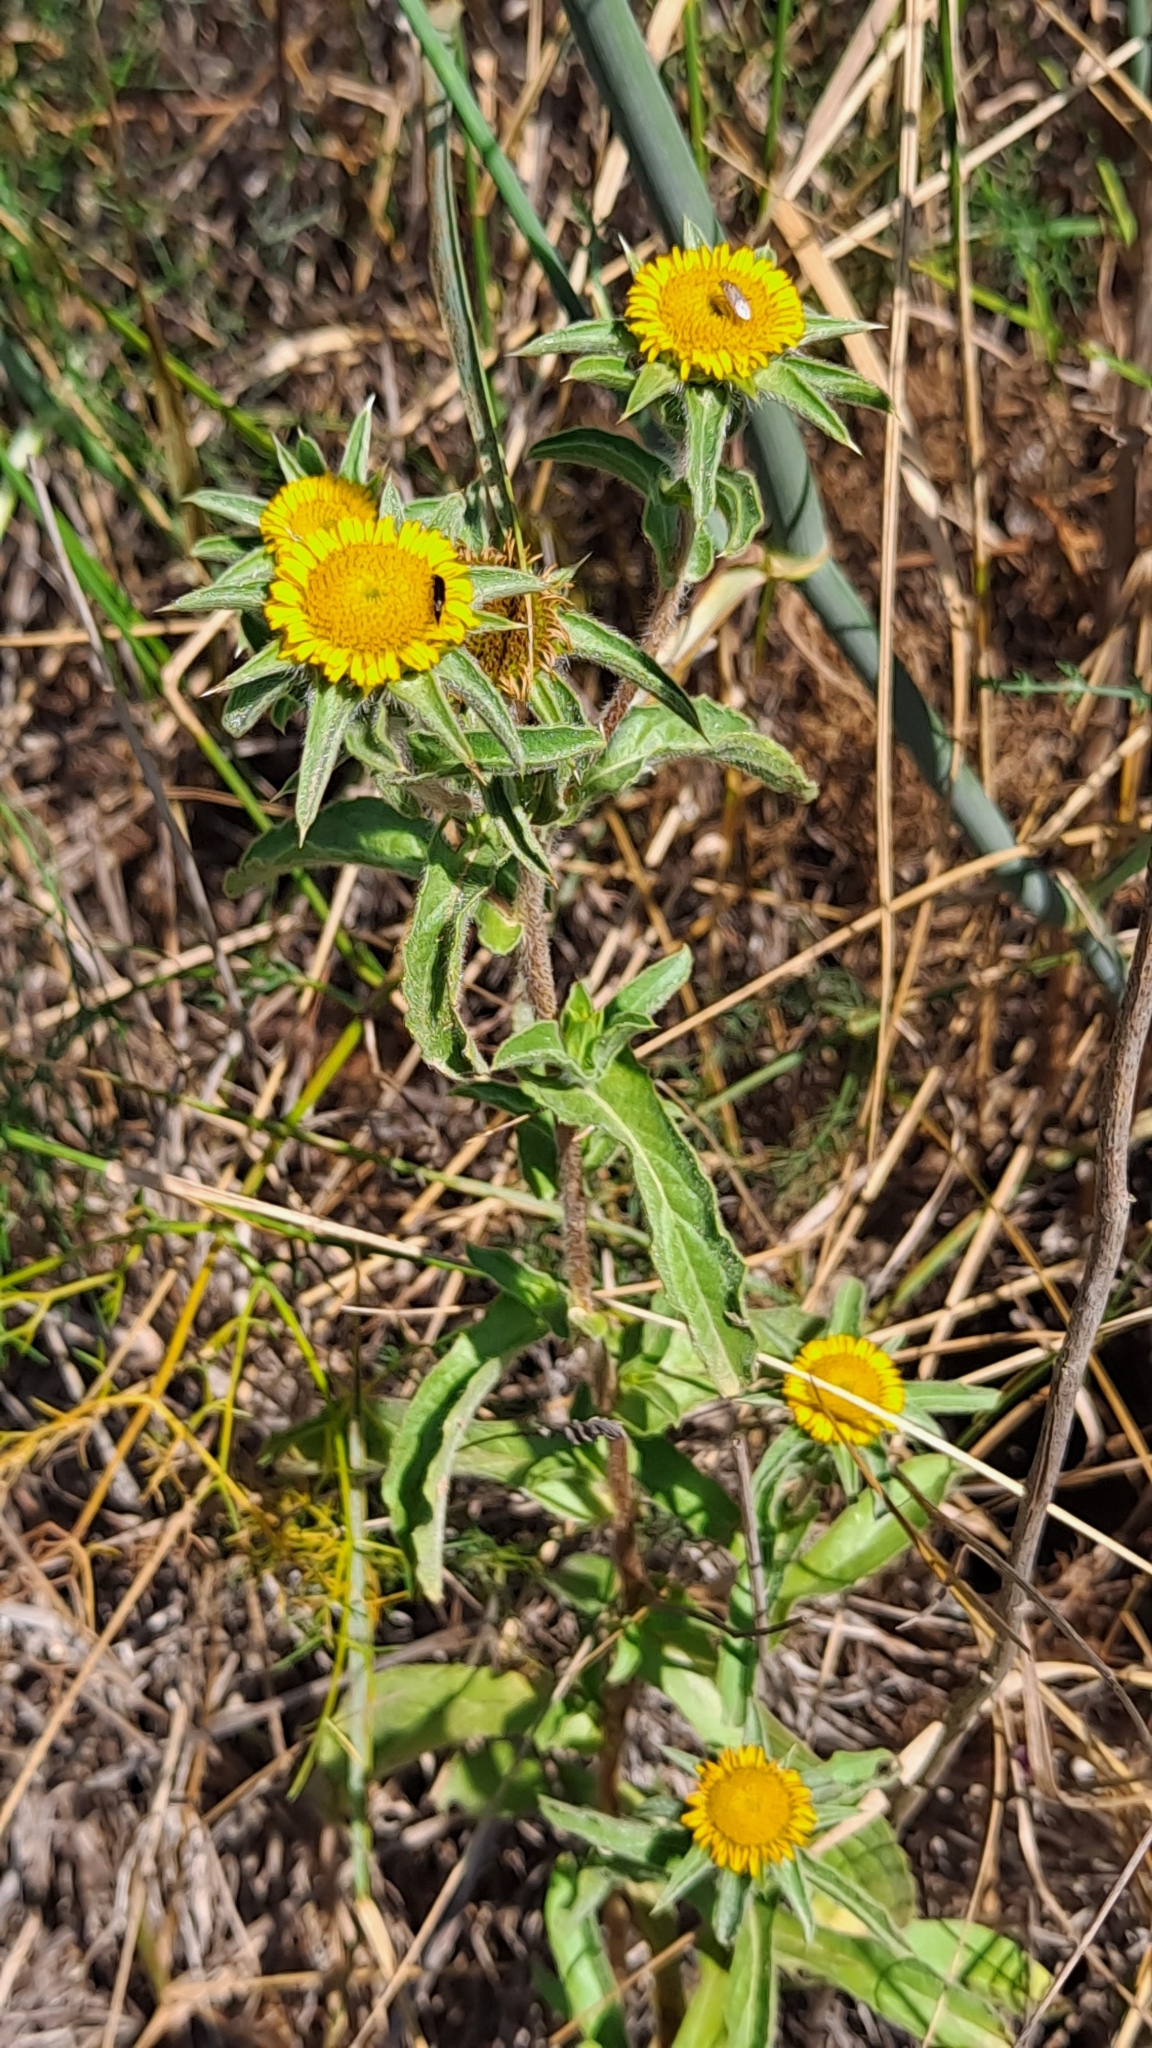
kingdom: Plantae
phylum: Tracheophyta
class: Magnoliopsida
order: Asterales
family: Asteraceae
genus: Pallenis
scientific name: Pallenis spinosa
